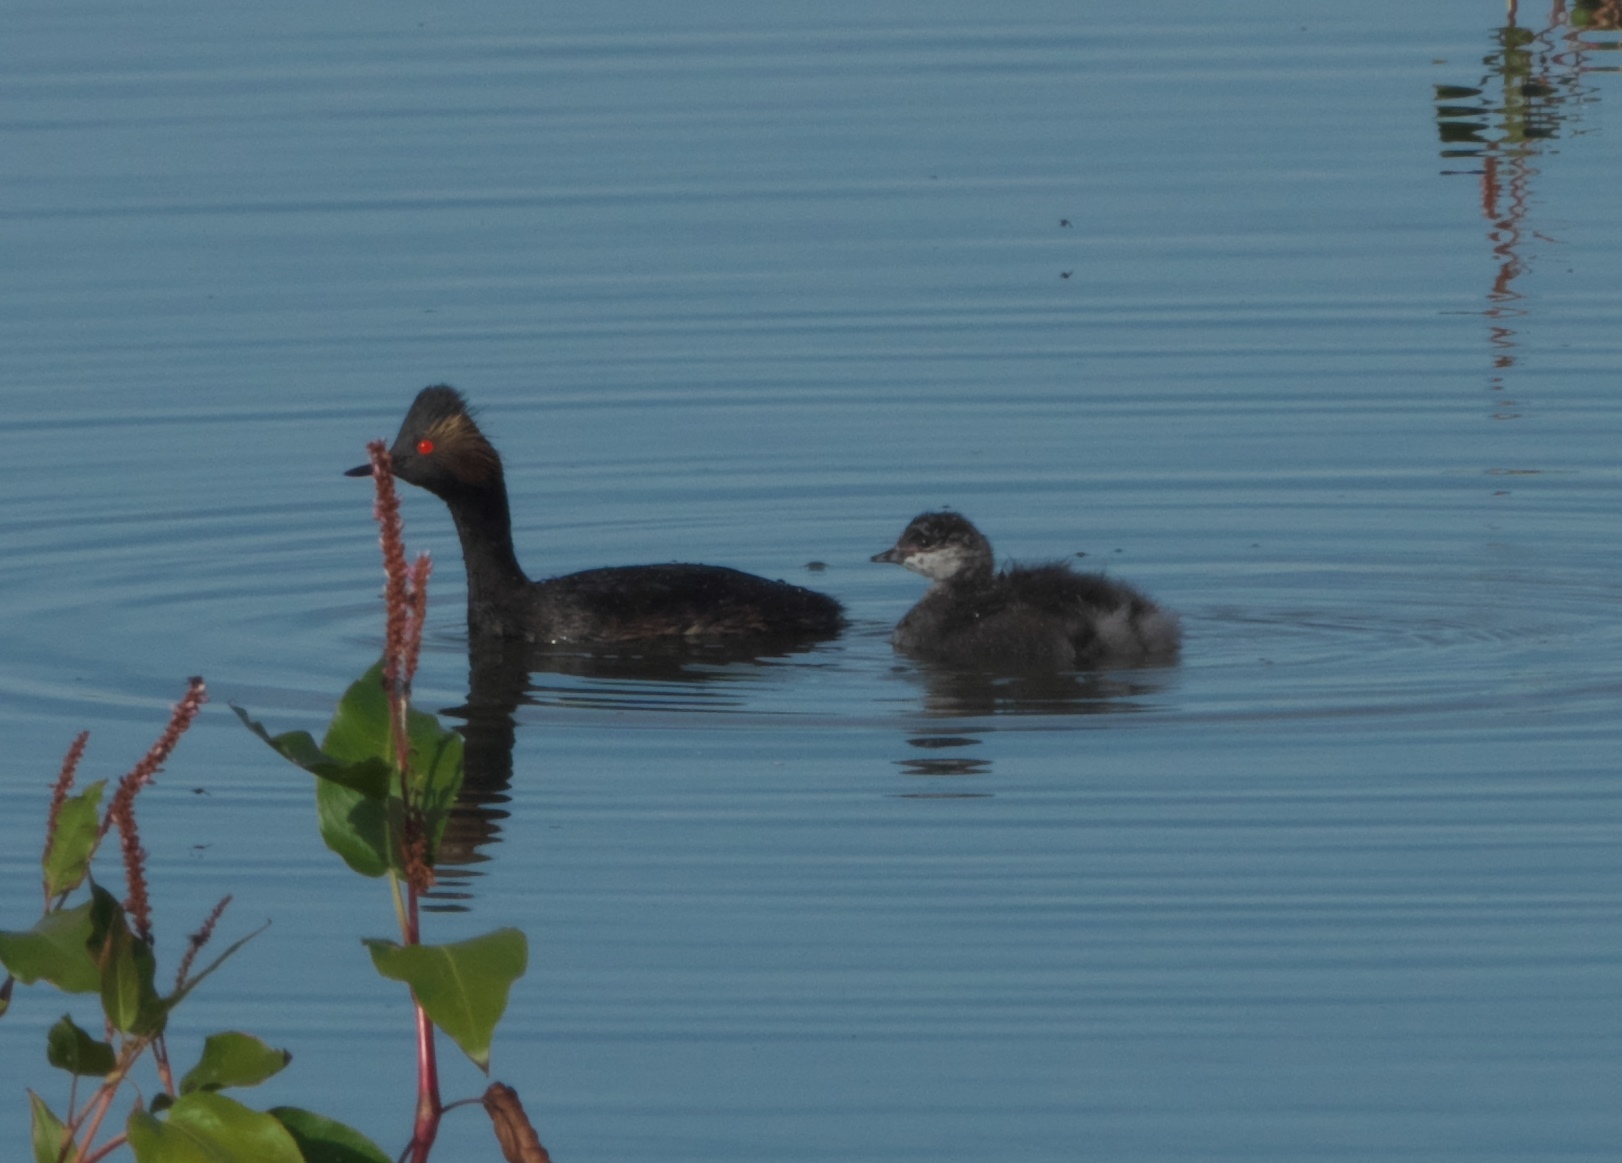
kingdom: Animalia
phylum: Chordata
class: Aves
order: Podicipediformes
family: Podicipedidae
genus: Podiceps
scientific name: Podiceps nigricollis
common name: Black-necked grebe
